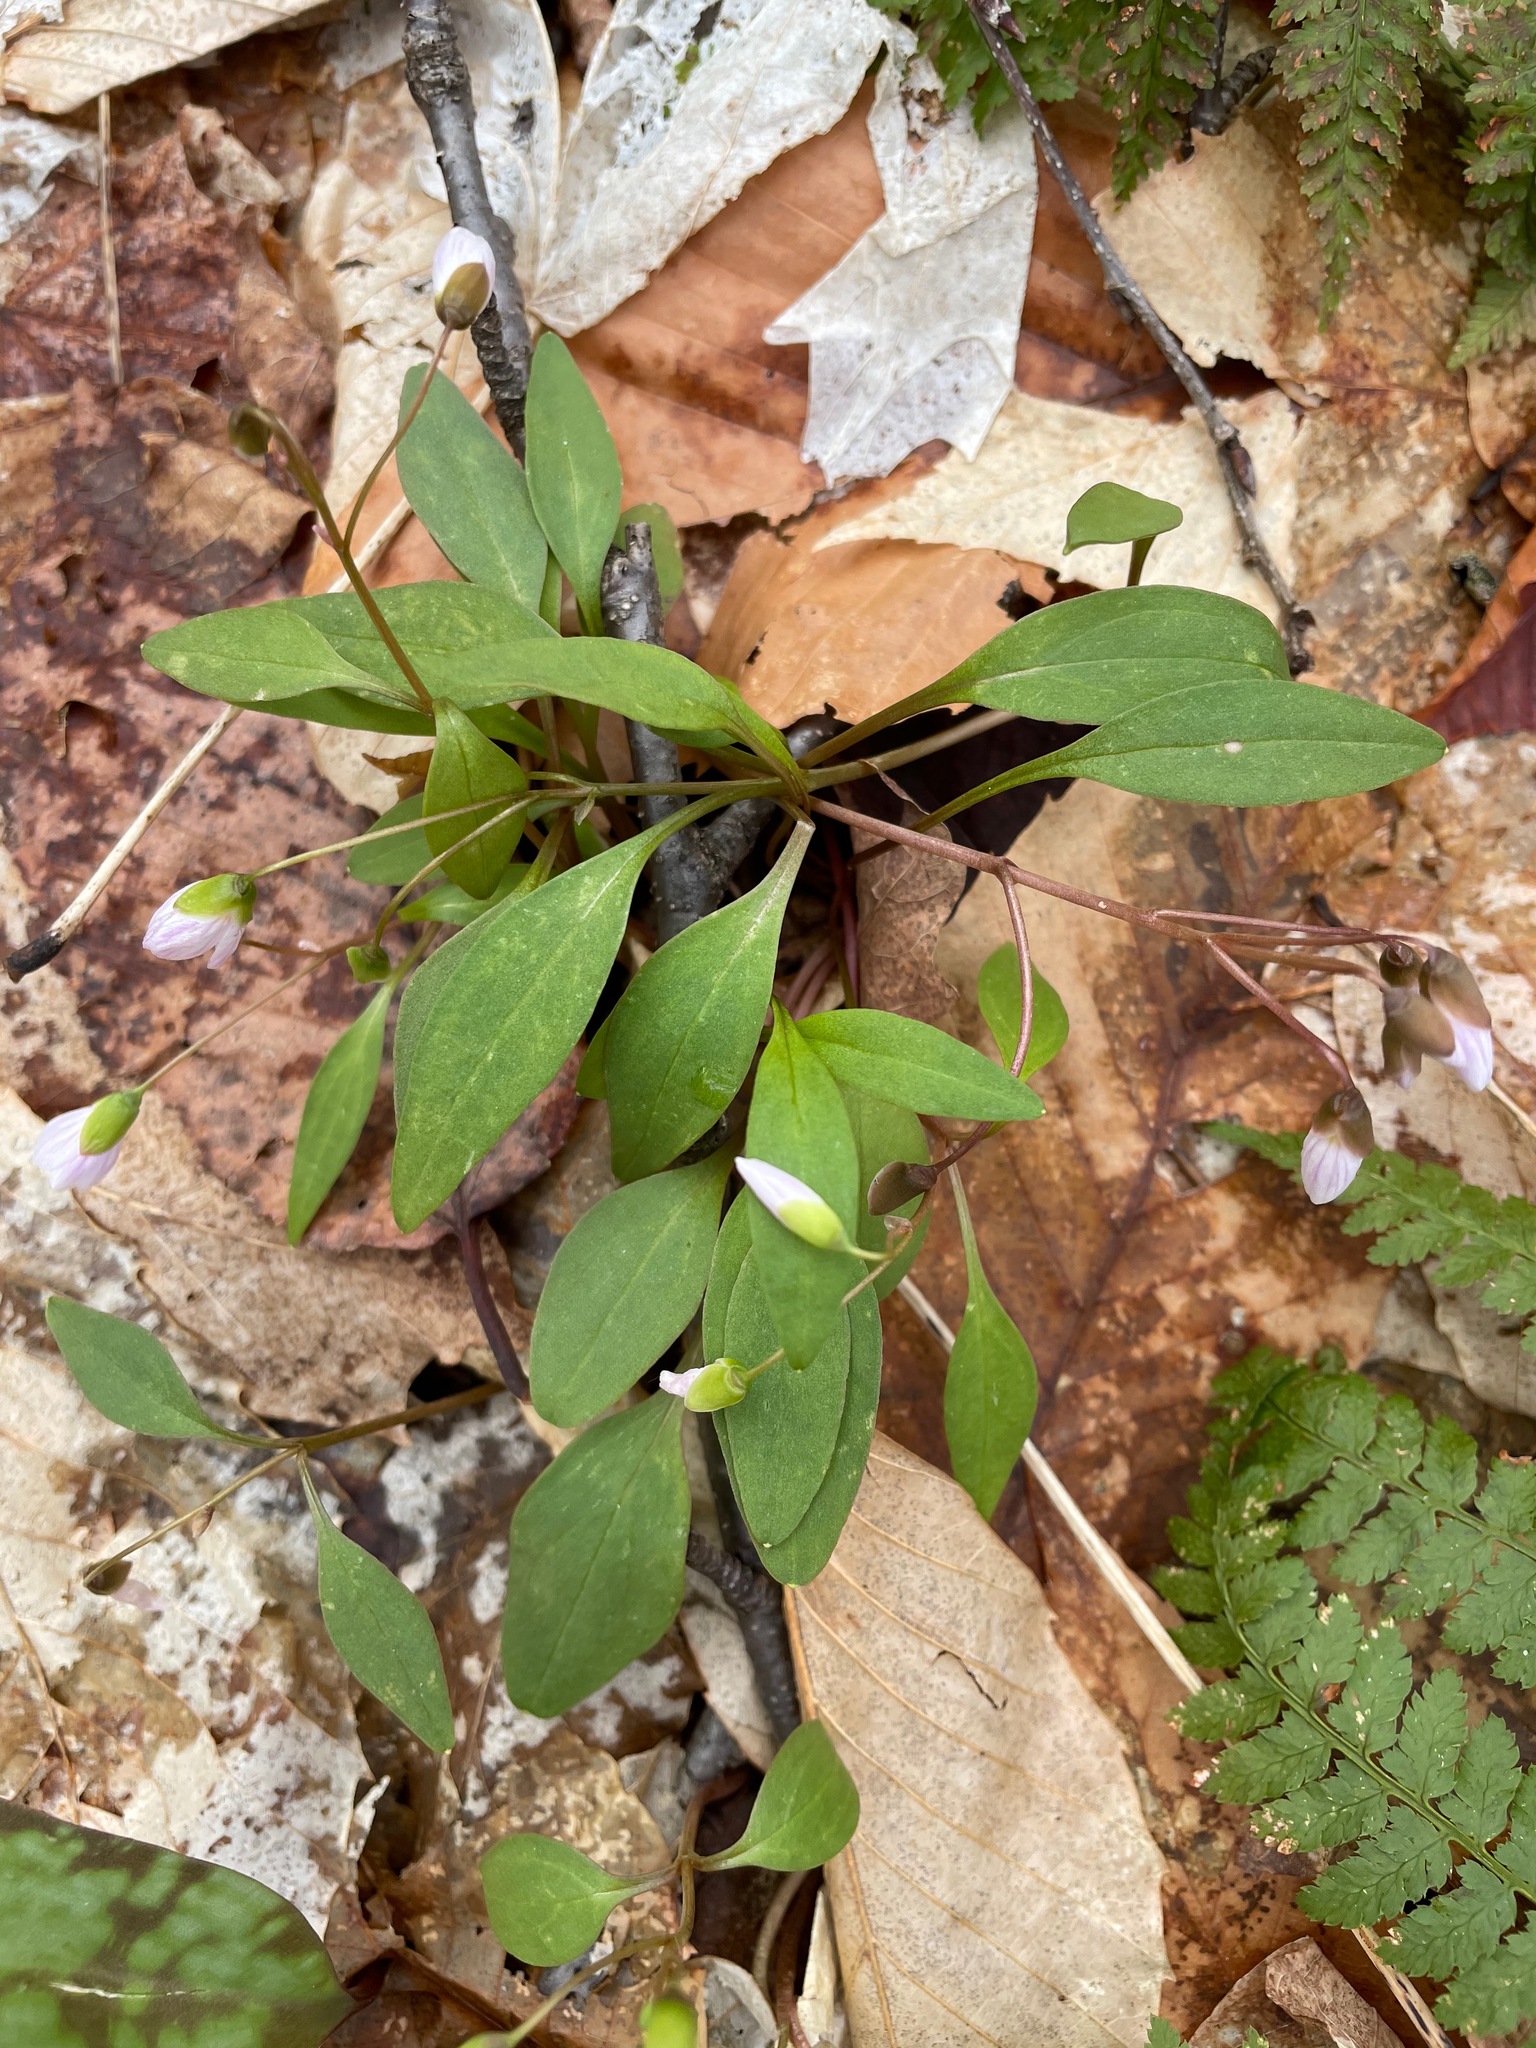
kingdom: Plantae
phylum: Tracheophyta
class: Magnoliopsida
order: Caryophyllales
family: Montiaceae
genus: Claytonia
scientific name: Claytonia caroliniana
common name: Carolina spring beauty
